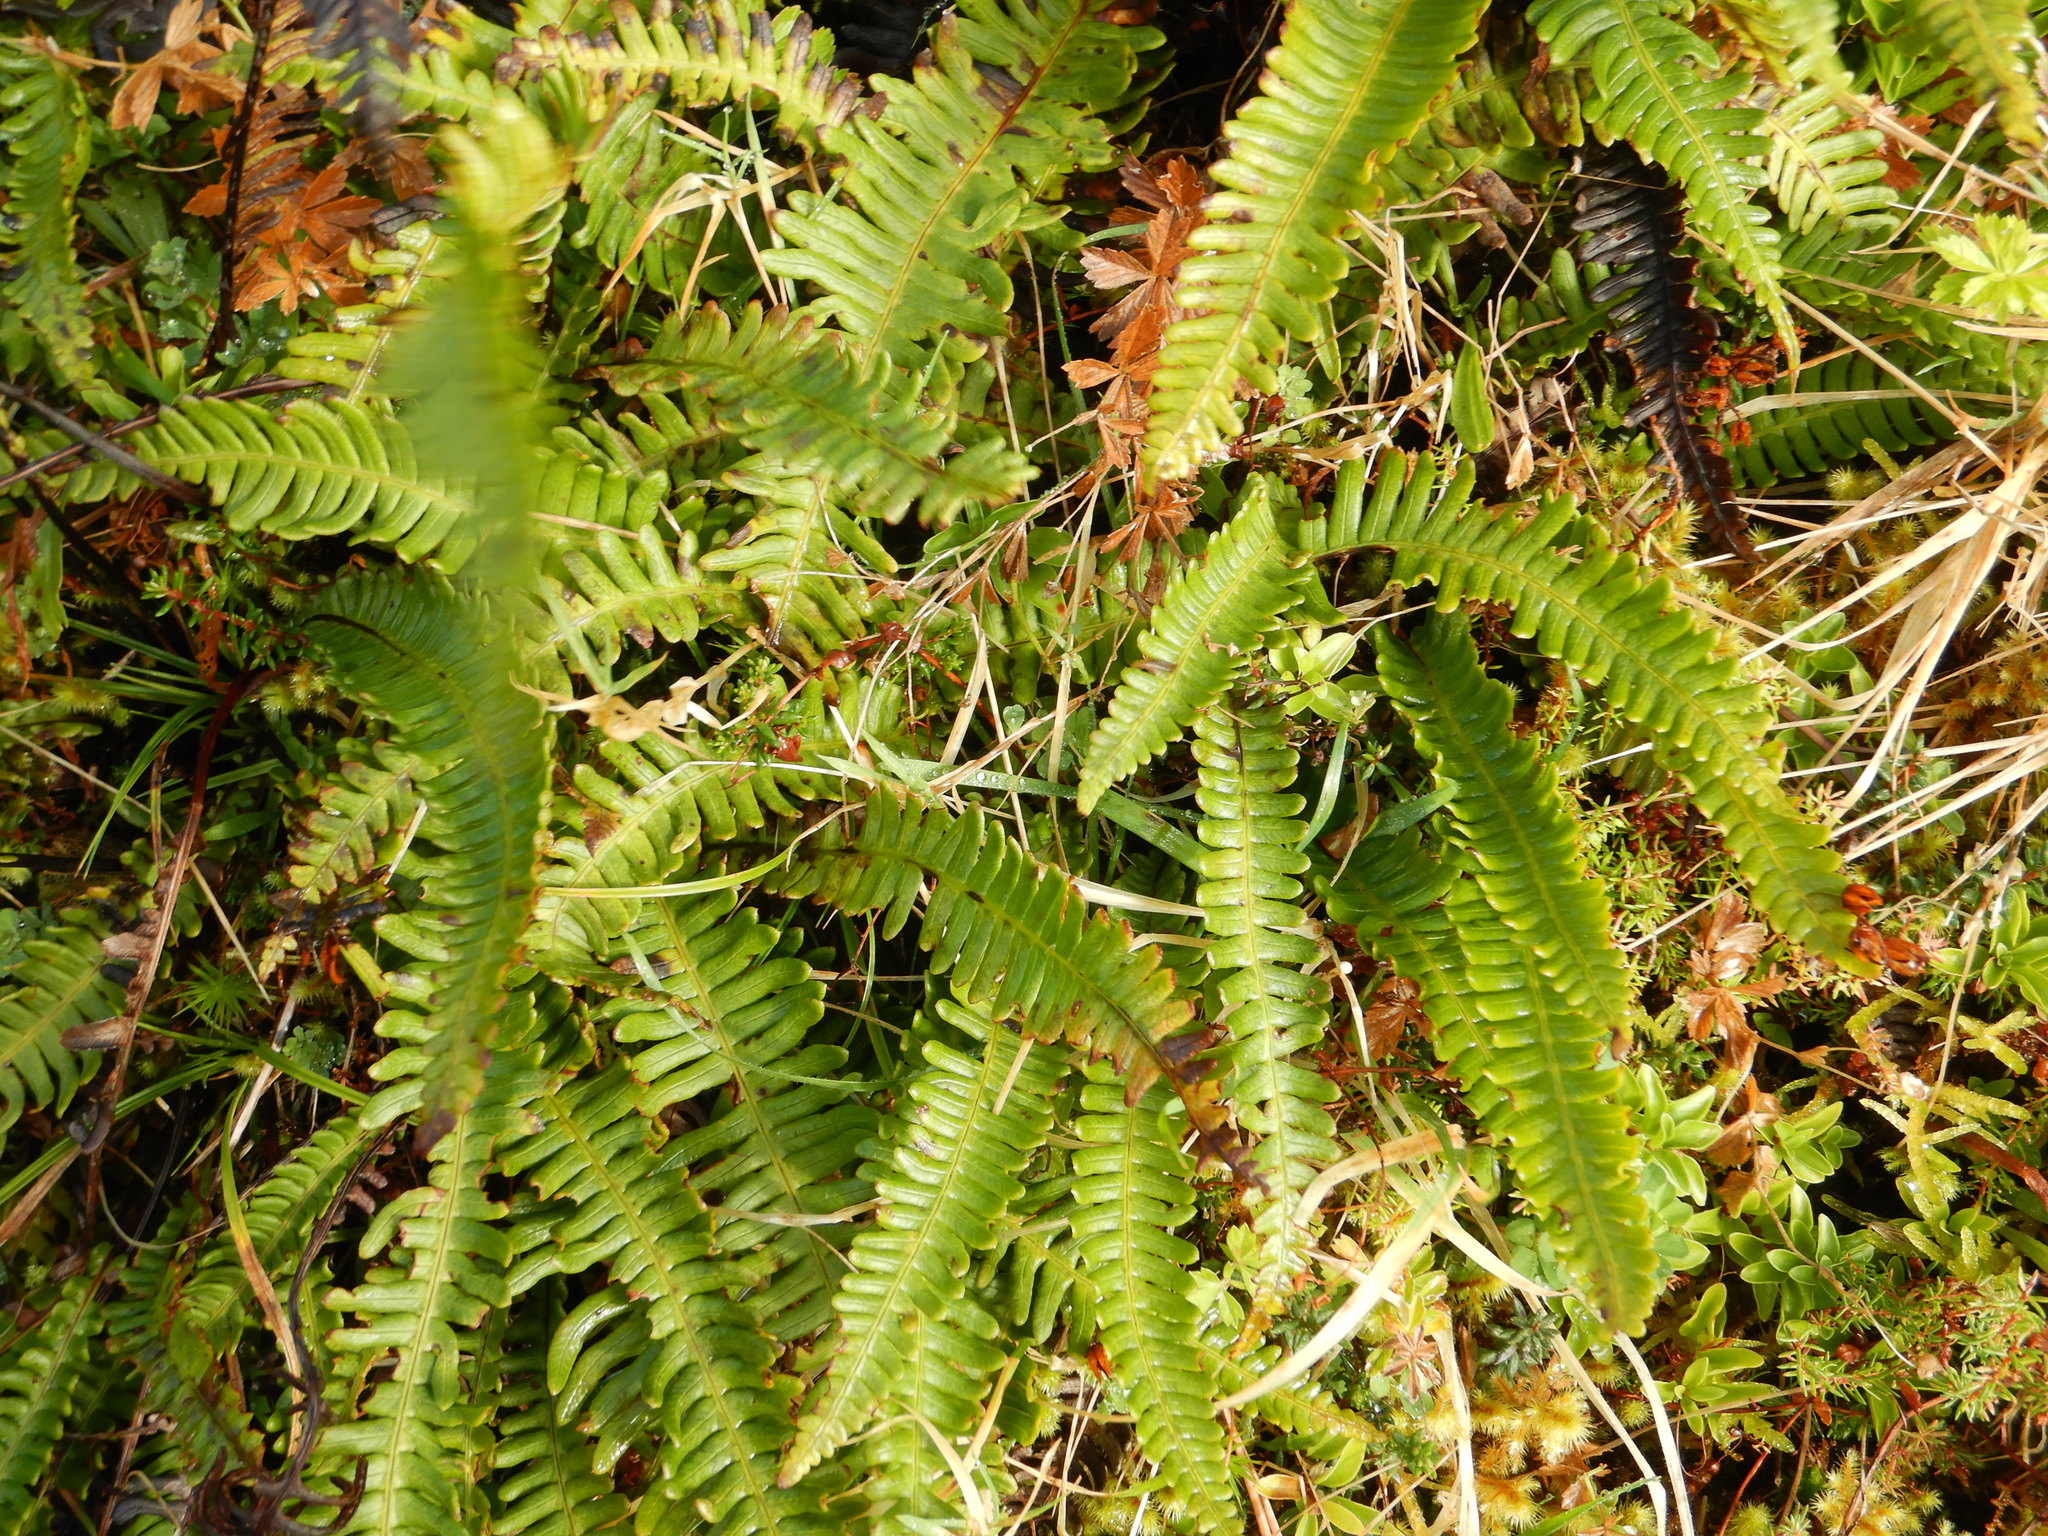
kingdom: Plantae
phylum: Tracheophyta
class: Polypodiopsida
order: Polypodiales
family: Blechnaceae
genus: Struthiopteris
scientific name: Struthiopteris spicant
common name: Deer fern
